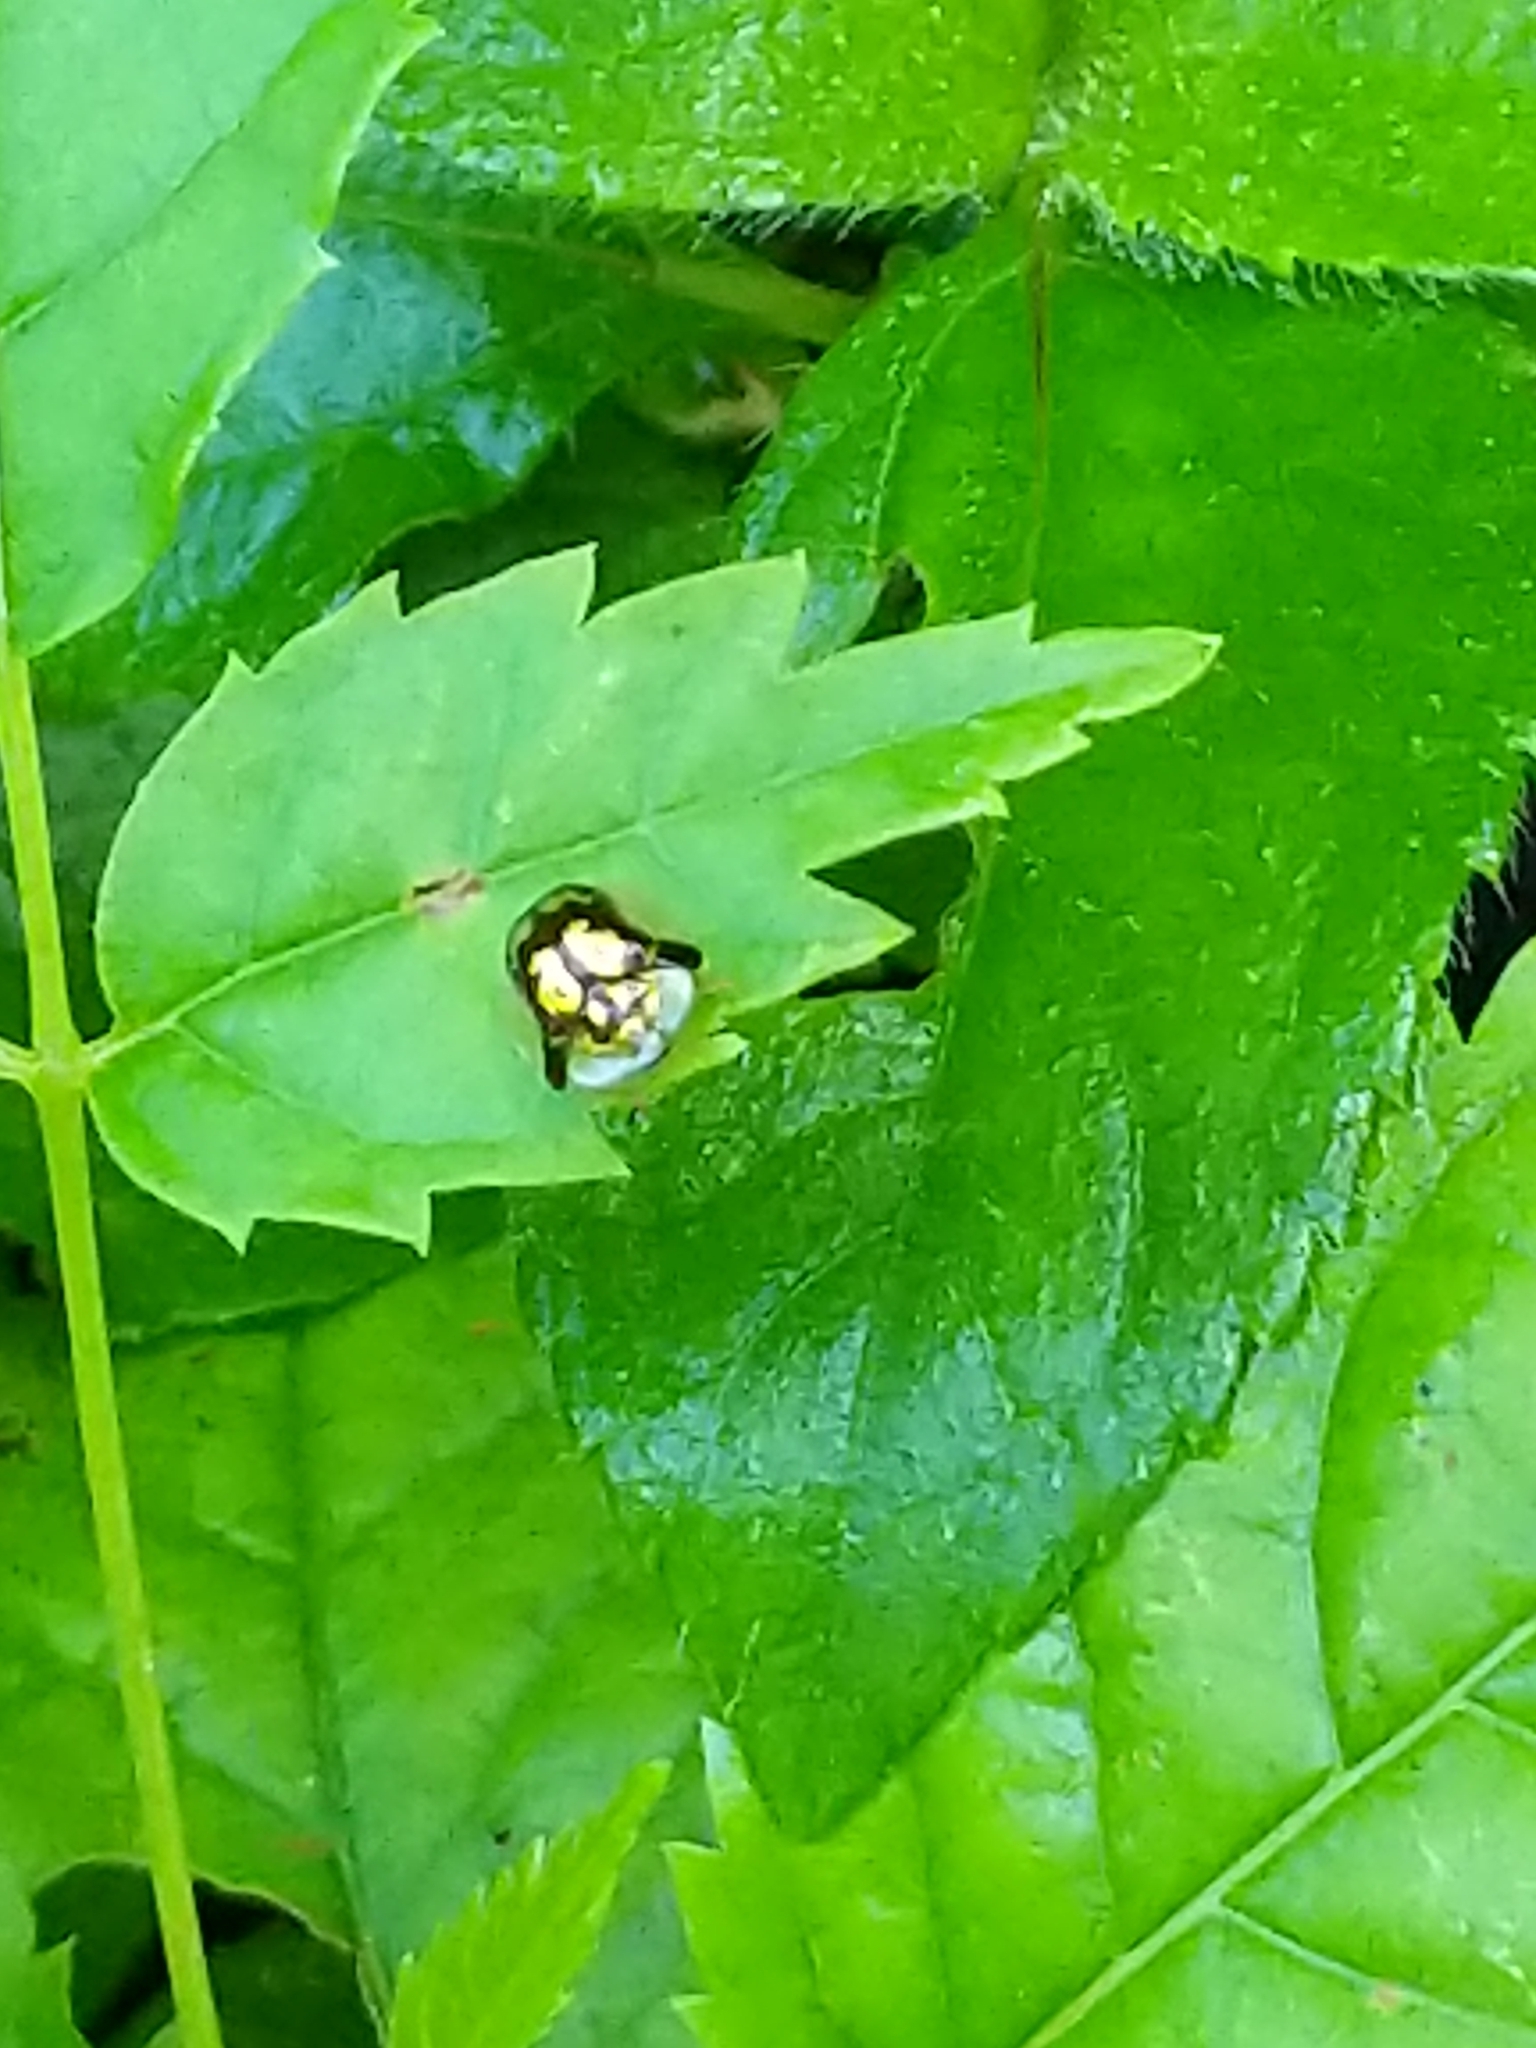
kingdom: Animalia
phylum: Arthropoda
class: Insecta
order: Coleoptera
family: Chrysomelidae
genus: Deloyala
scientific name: Deloyala fuliginosa
